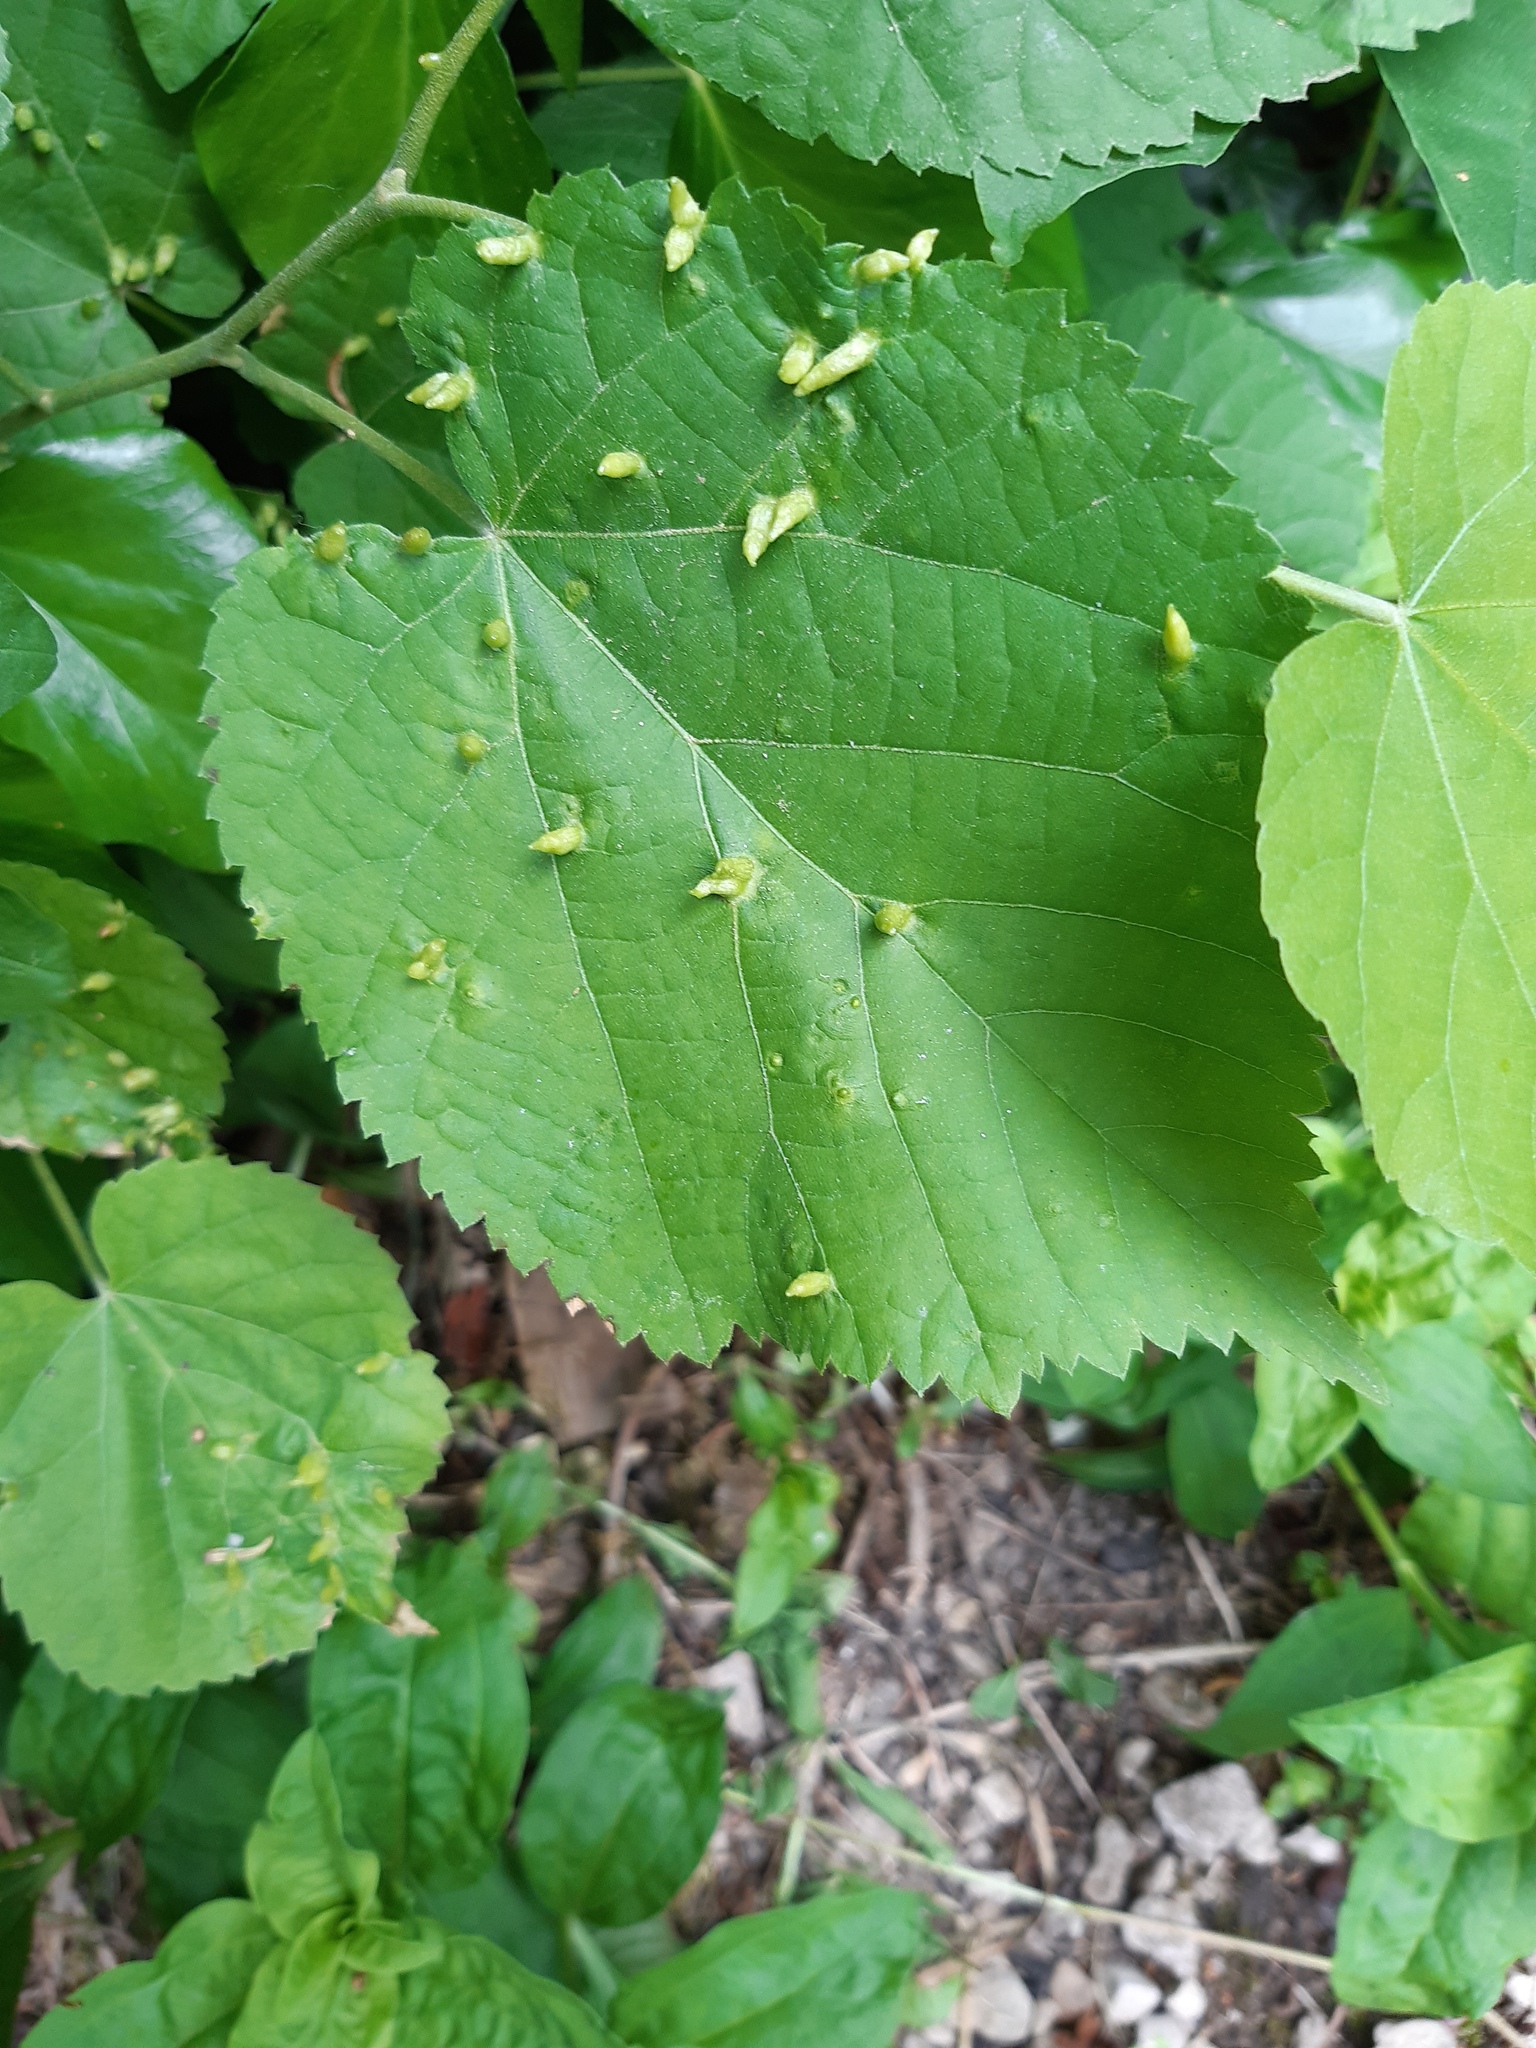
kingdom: Animalia
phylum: Arthropoda
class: Arachnida
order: Trombidiformes
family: Eriophyidae
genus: Eriophyes
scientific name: Eriophyes tiliae
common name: Red nail gall mite
